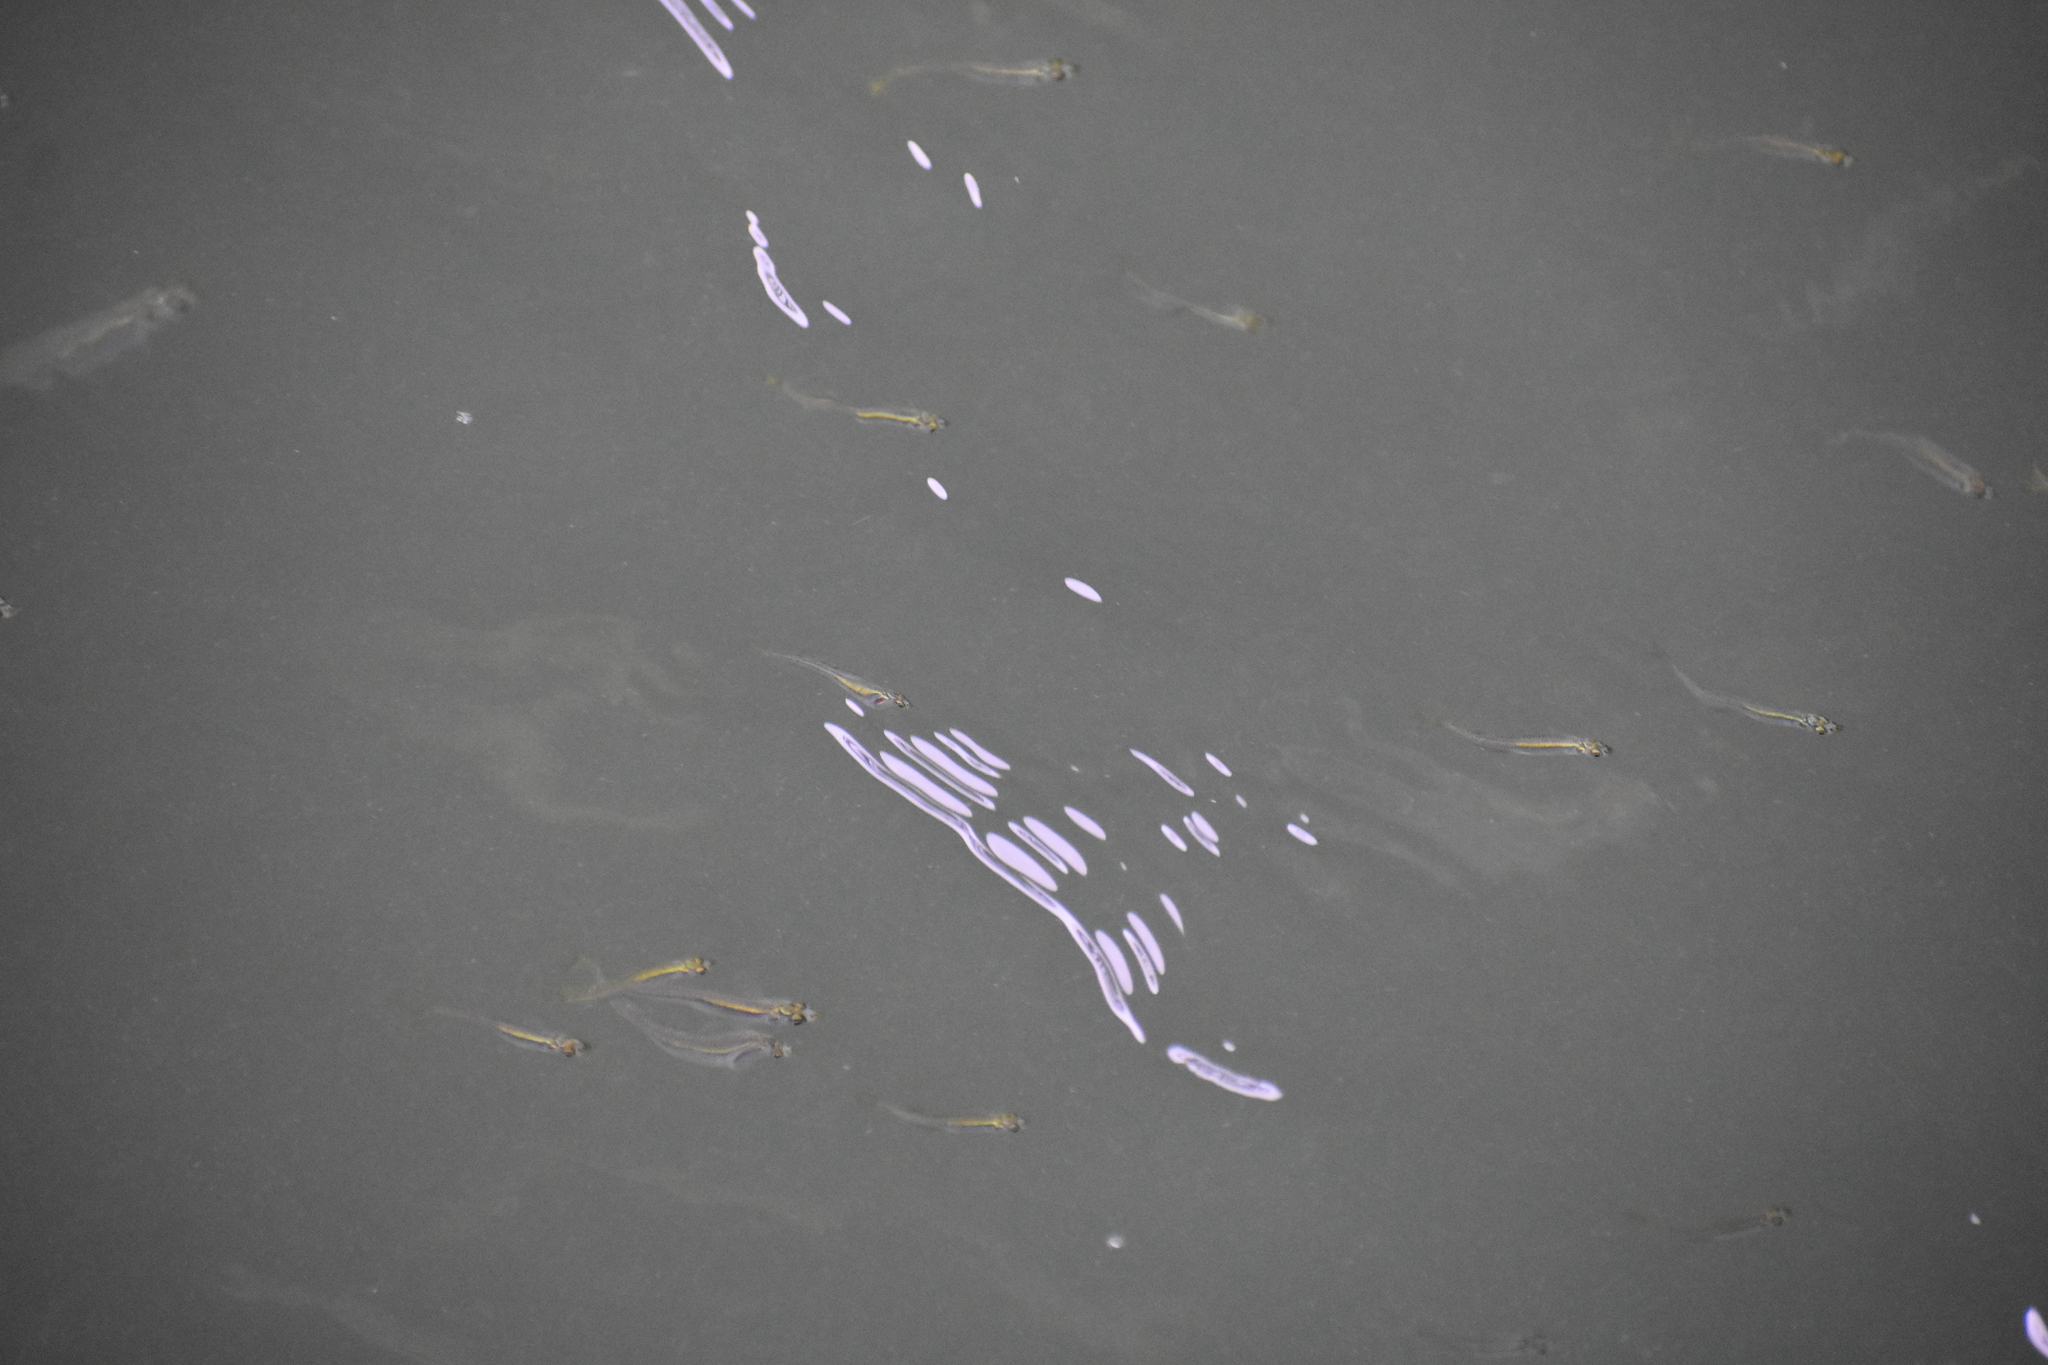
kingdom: Animalia
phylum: Chordata
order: Atheriniformes
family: Atherinopsidae
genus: Menidia
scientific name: Menidia menidia
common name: Atlantic silverside
